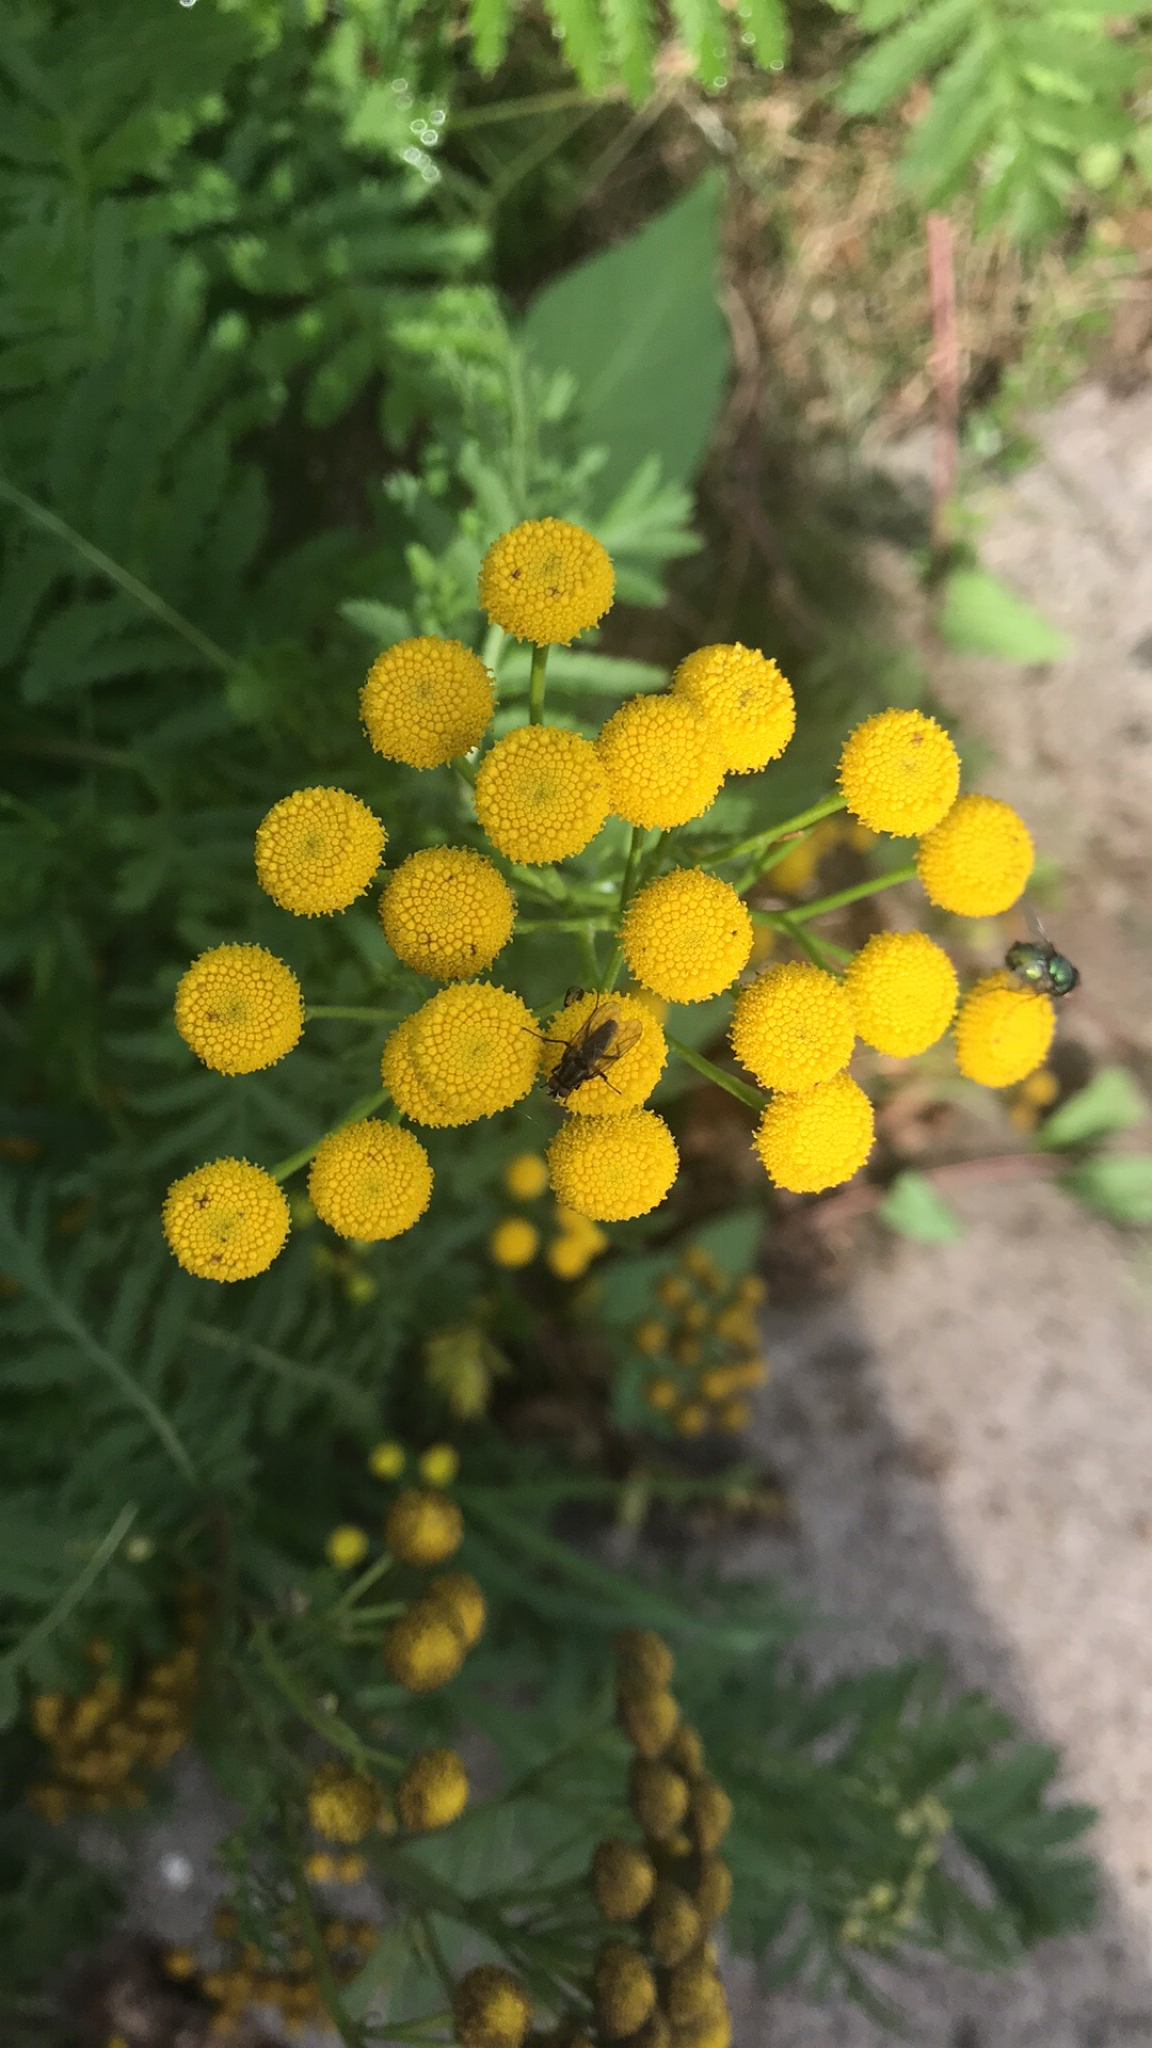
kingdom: Plantae
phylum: Tracheophyta
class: Magnoliopsida
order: Asterales
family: Asteraceae
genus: Tanacetum
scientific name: Tanacetum vulgare
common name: Common tansy
